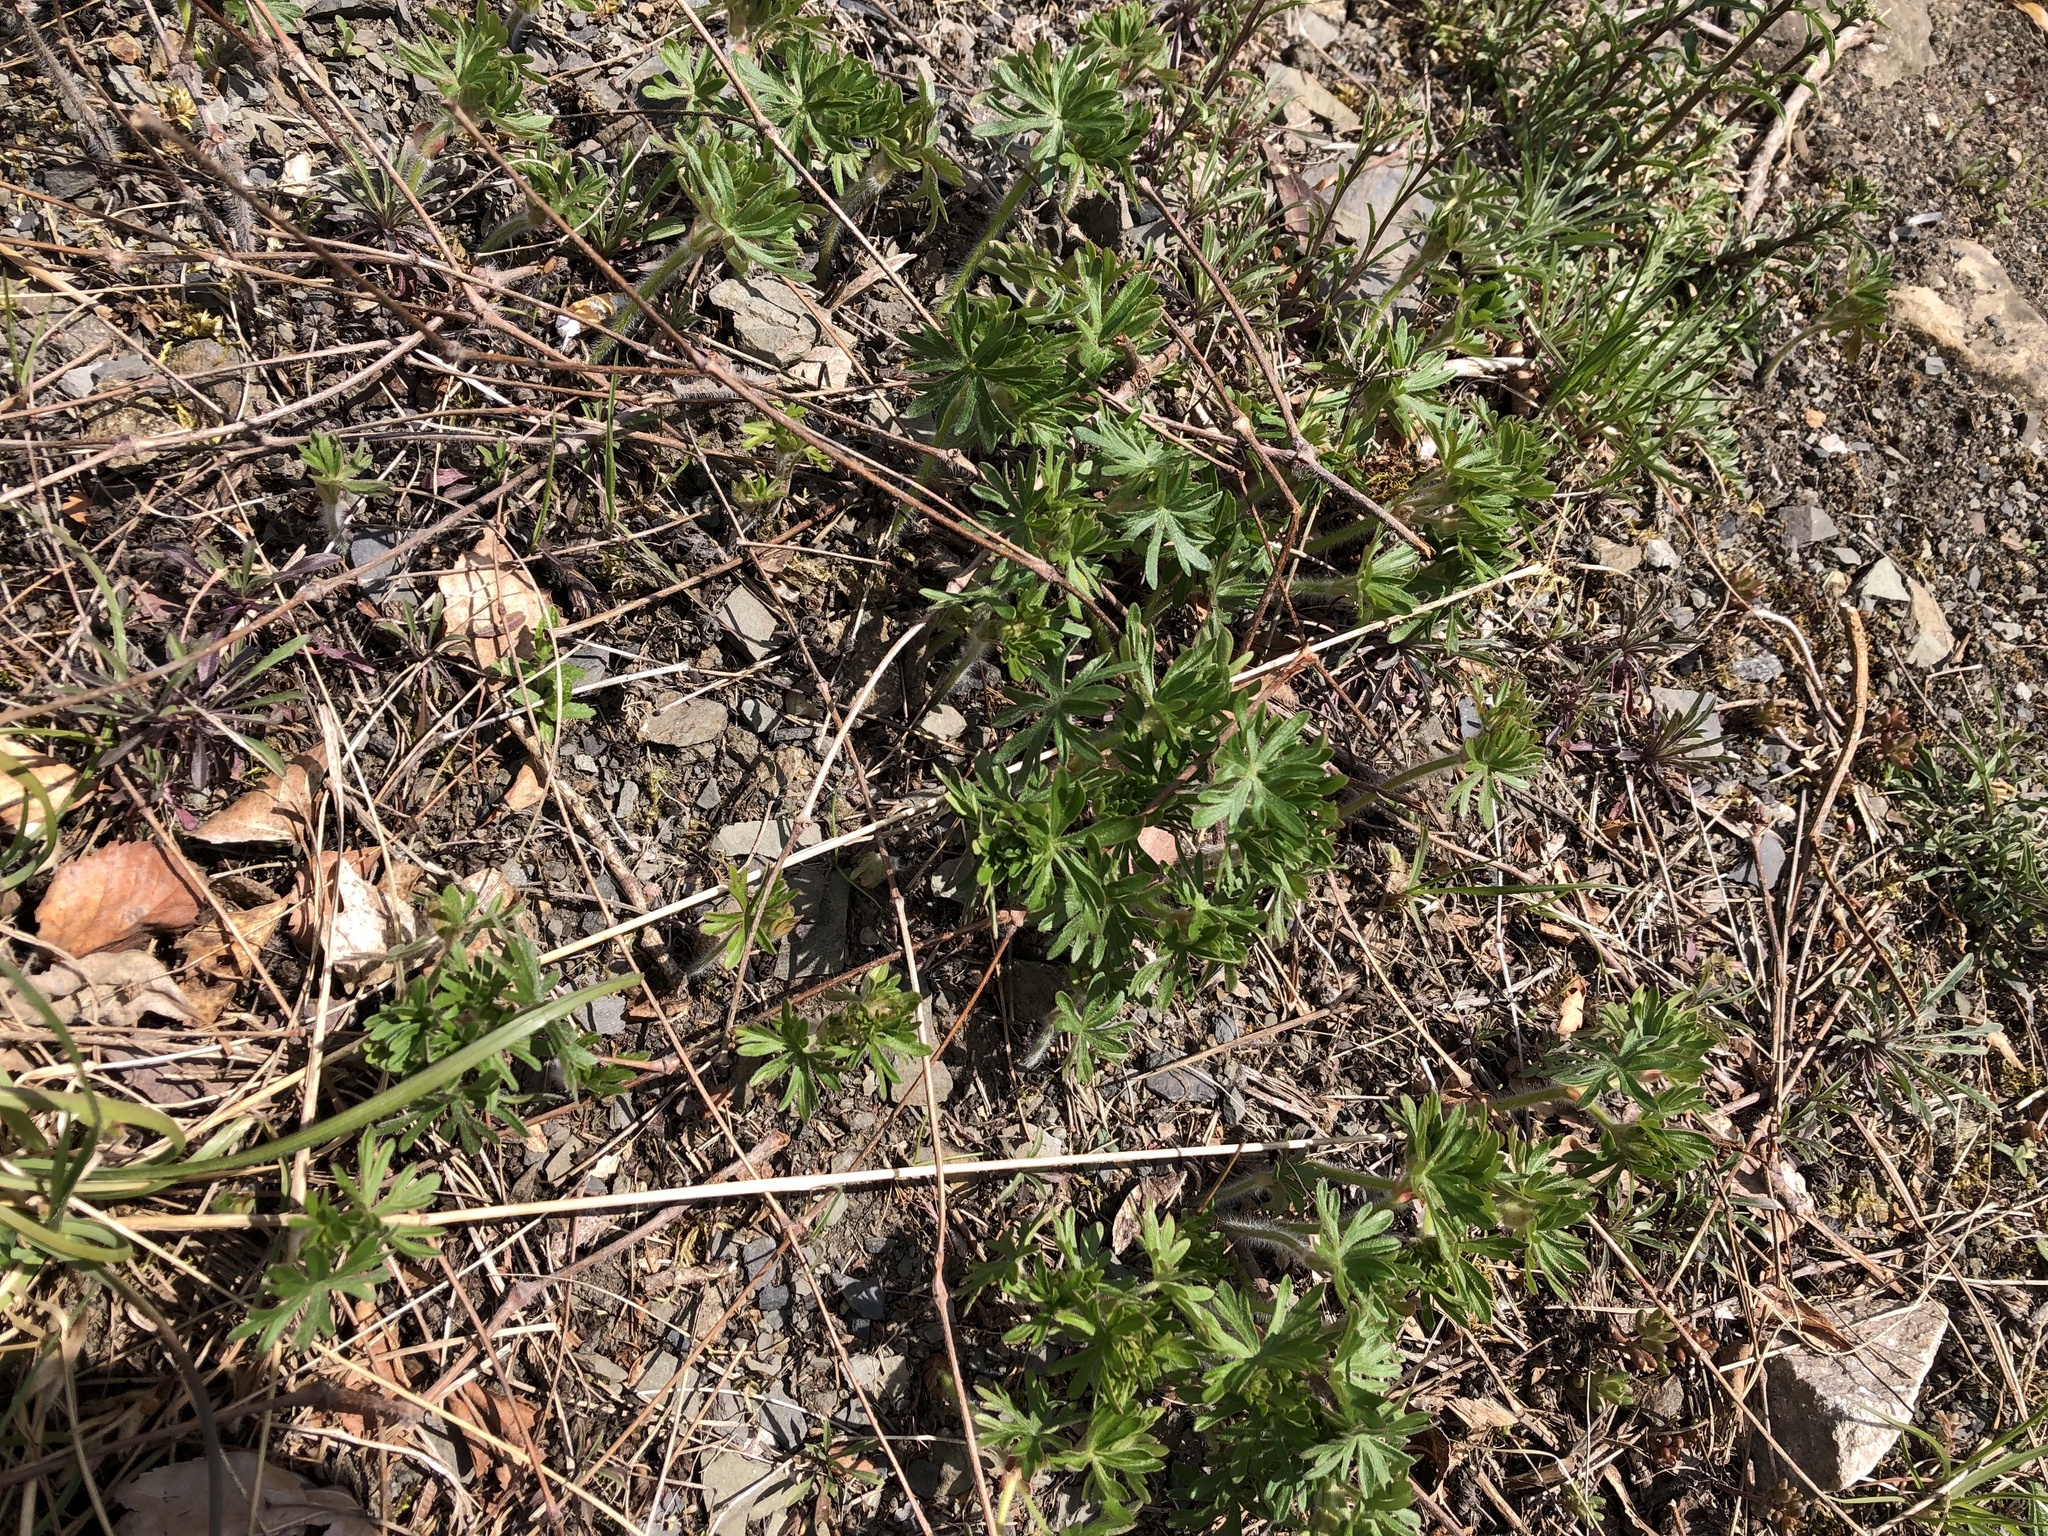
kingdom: Plantae
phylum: Tracheophyta
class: Magnoliopsida
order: Geraniales
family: Geraniaceae
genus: Geranium
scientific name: Geranium sanguineum
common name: Bloody crane's-bill
